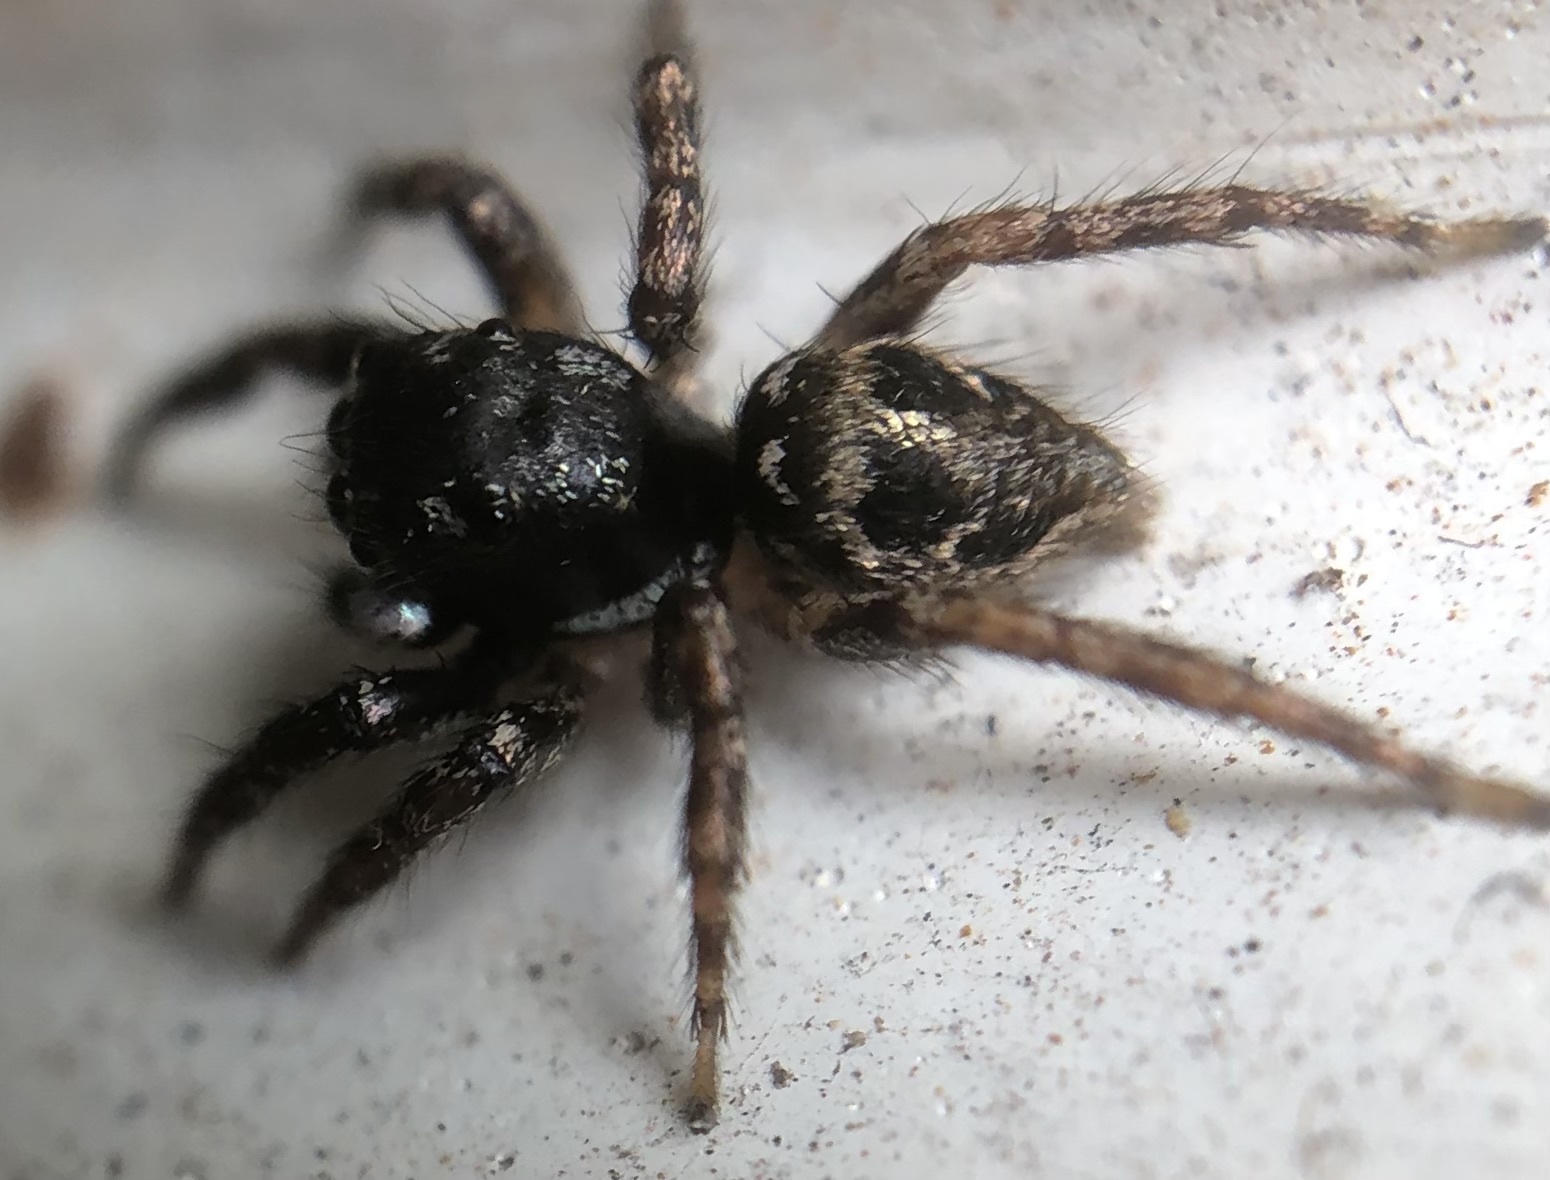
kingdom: Animalia
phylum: Arthropoda
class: Arachnida
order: Araneae
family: Salticidae
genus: Anasaitis
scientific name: Anasaitis canosa
